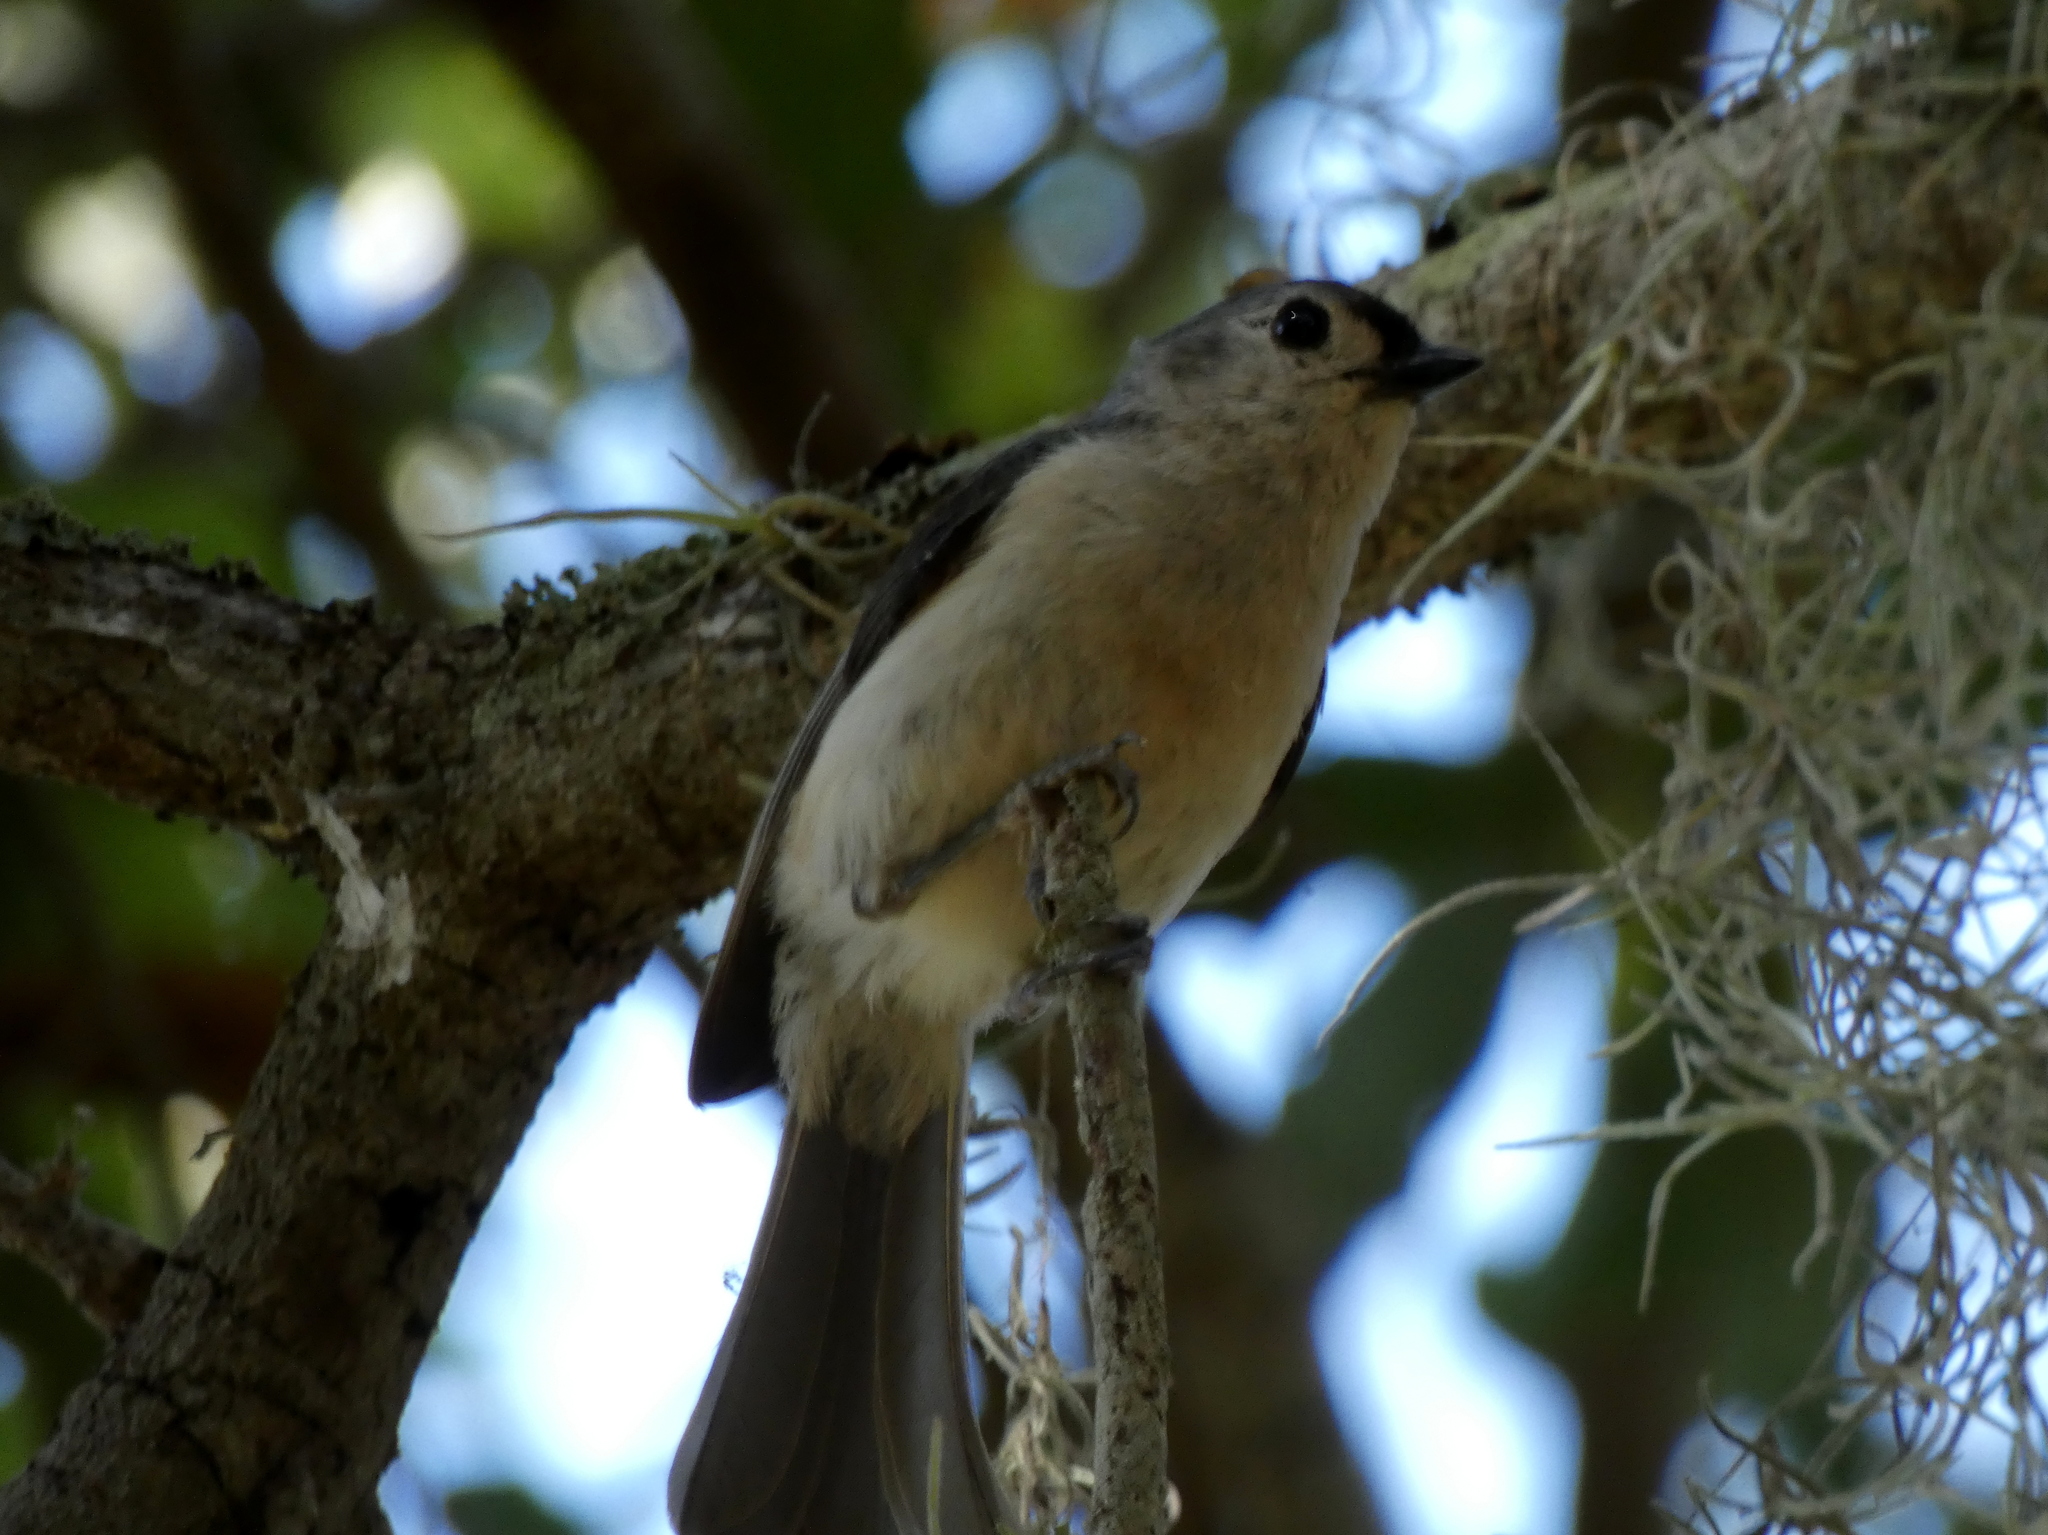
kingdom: Animalia
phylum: Chordata
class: Aves
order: Passeriformes
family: Paridae
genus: Baeolophus
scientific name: Baeolophus bicolor
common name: Tufted titmouse
